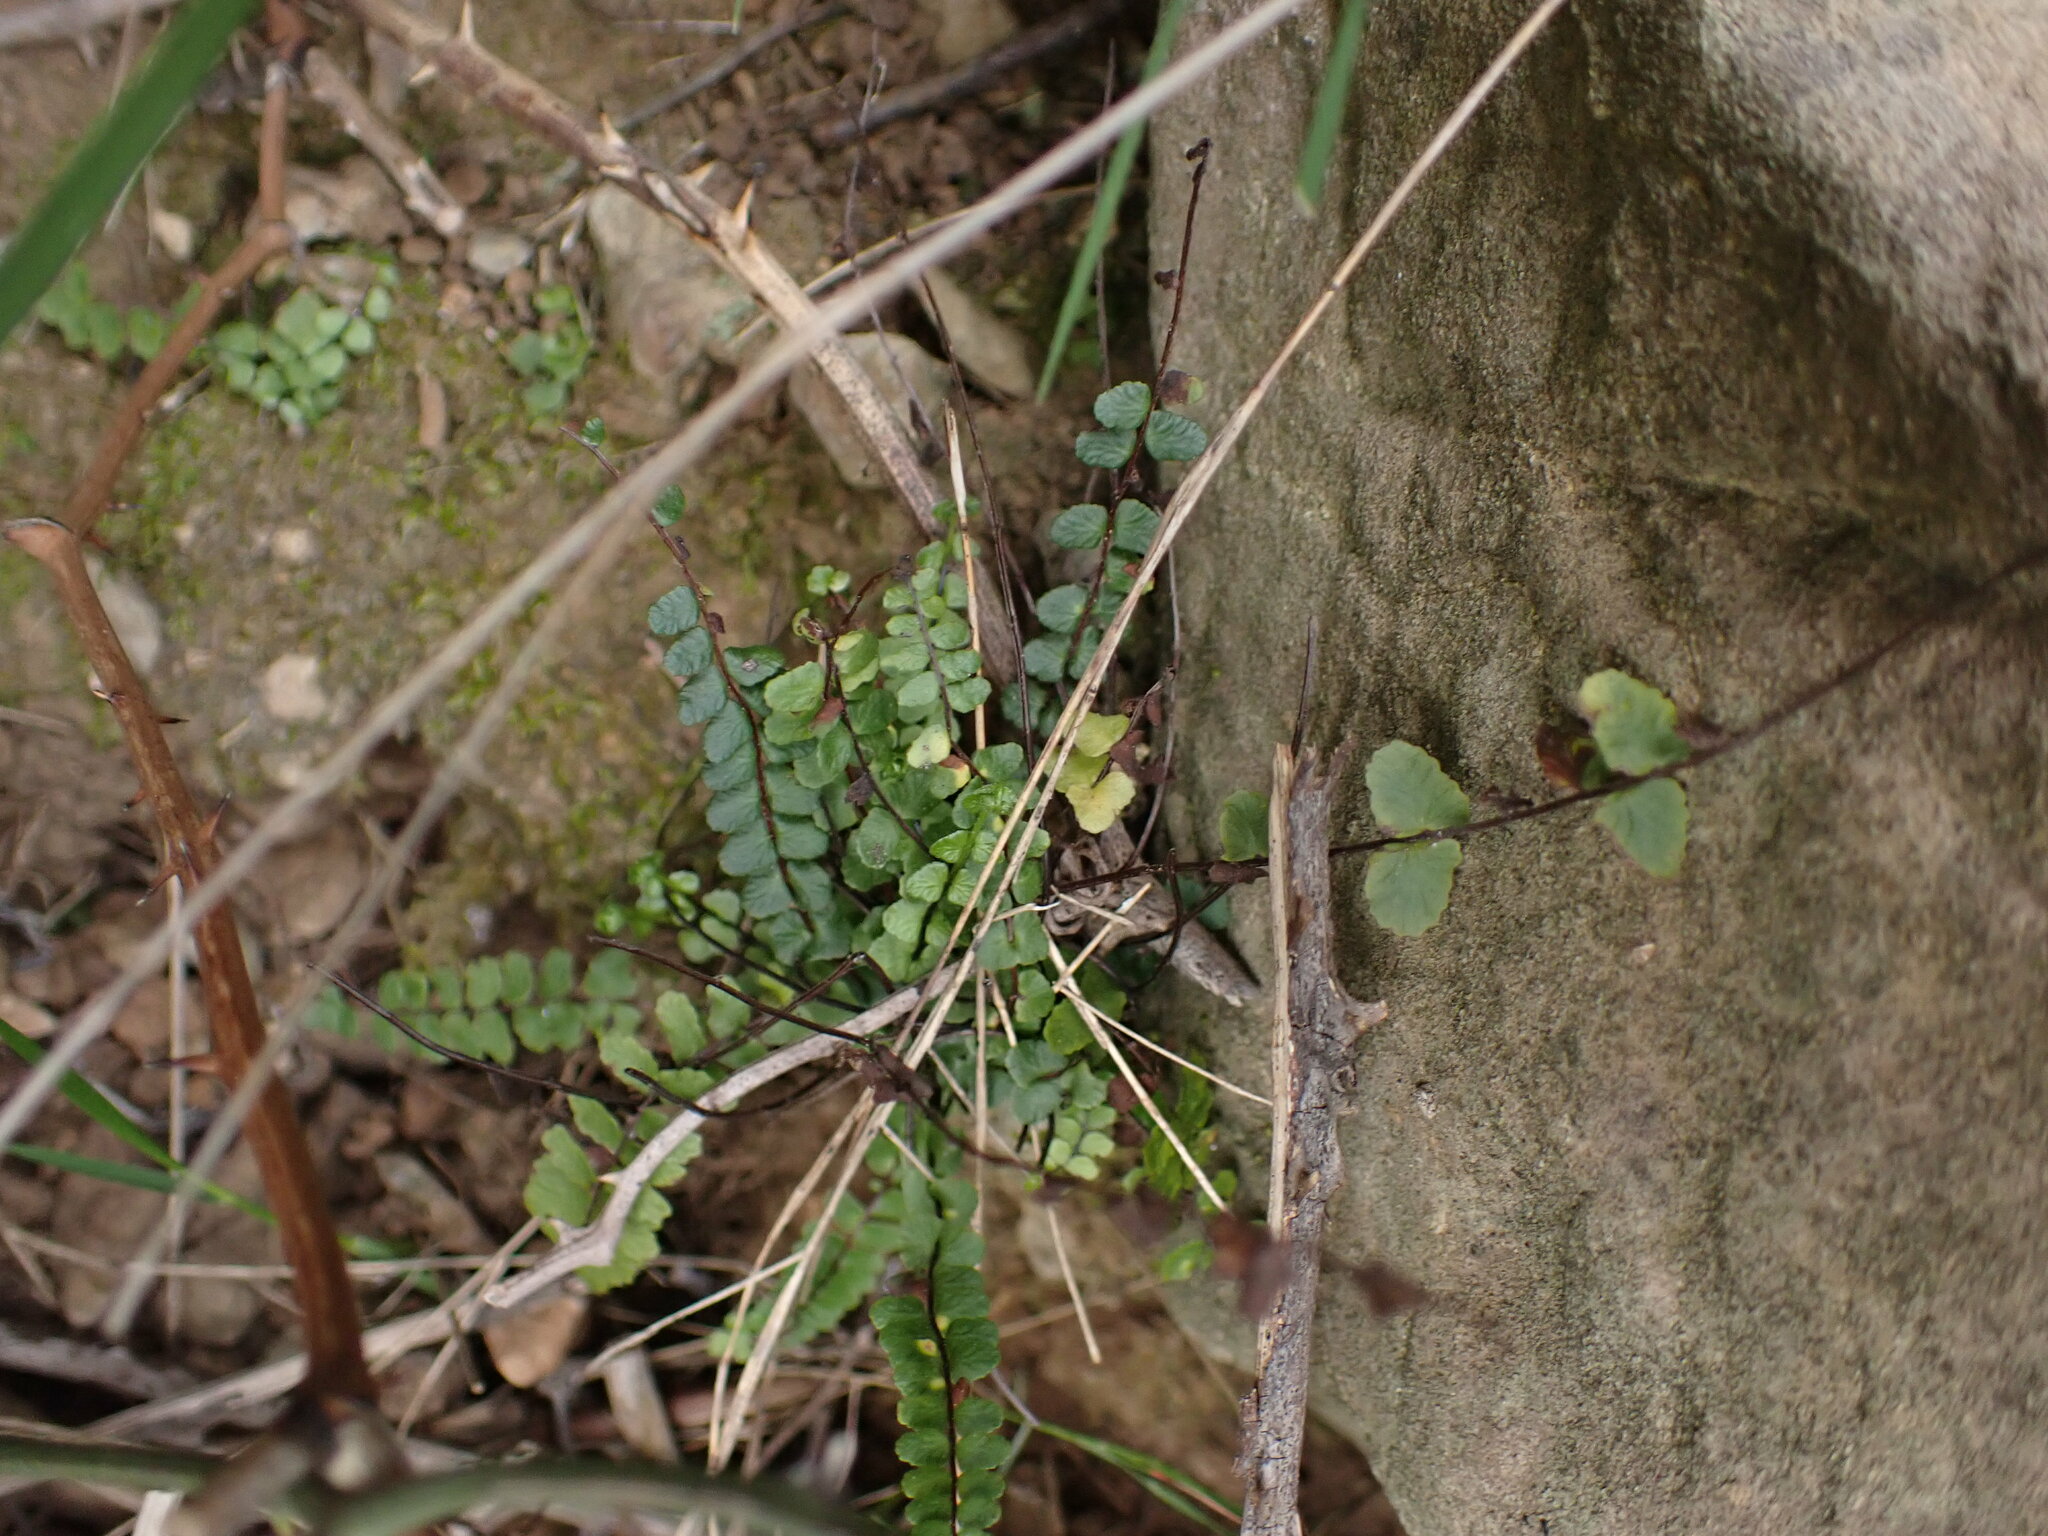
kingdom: Plantae
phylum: Tracheophyta
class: Polypodiopsida
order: Polypodiales
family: Aspleniaceae
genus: Asplenium
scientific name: Asplenium trichomanes
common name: Maidenhair spleenwort
